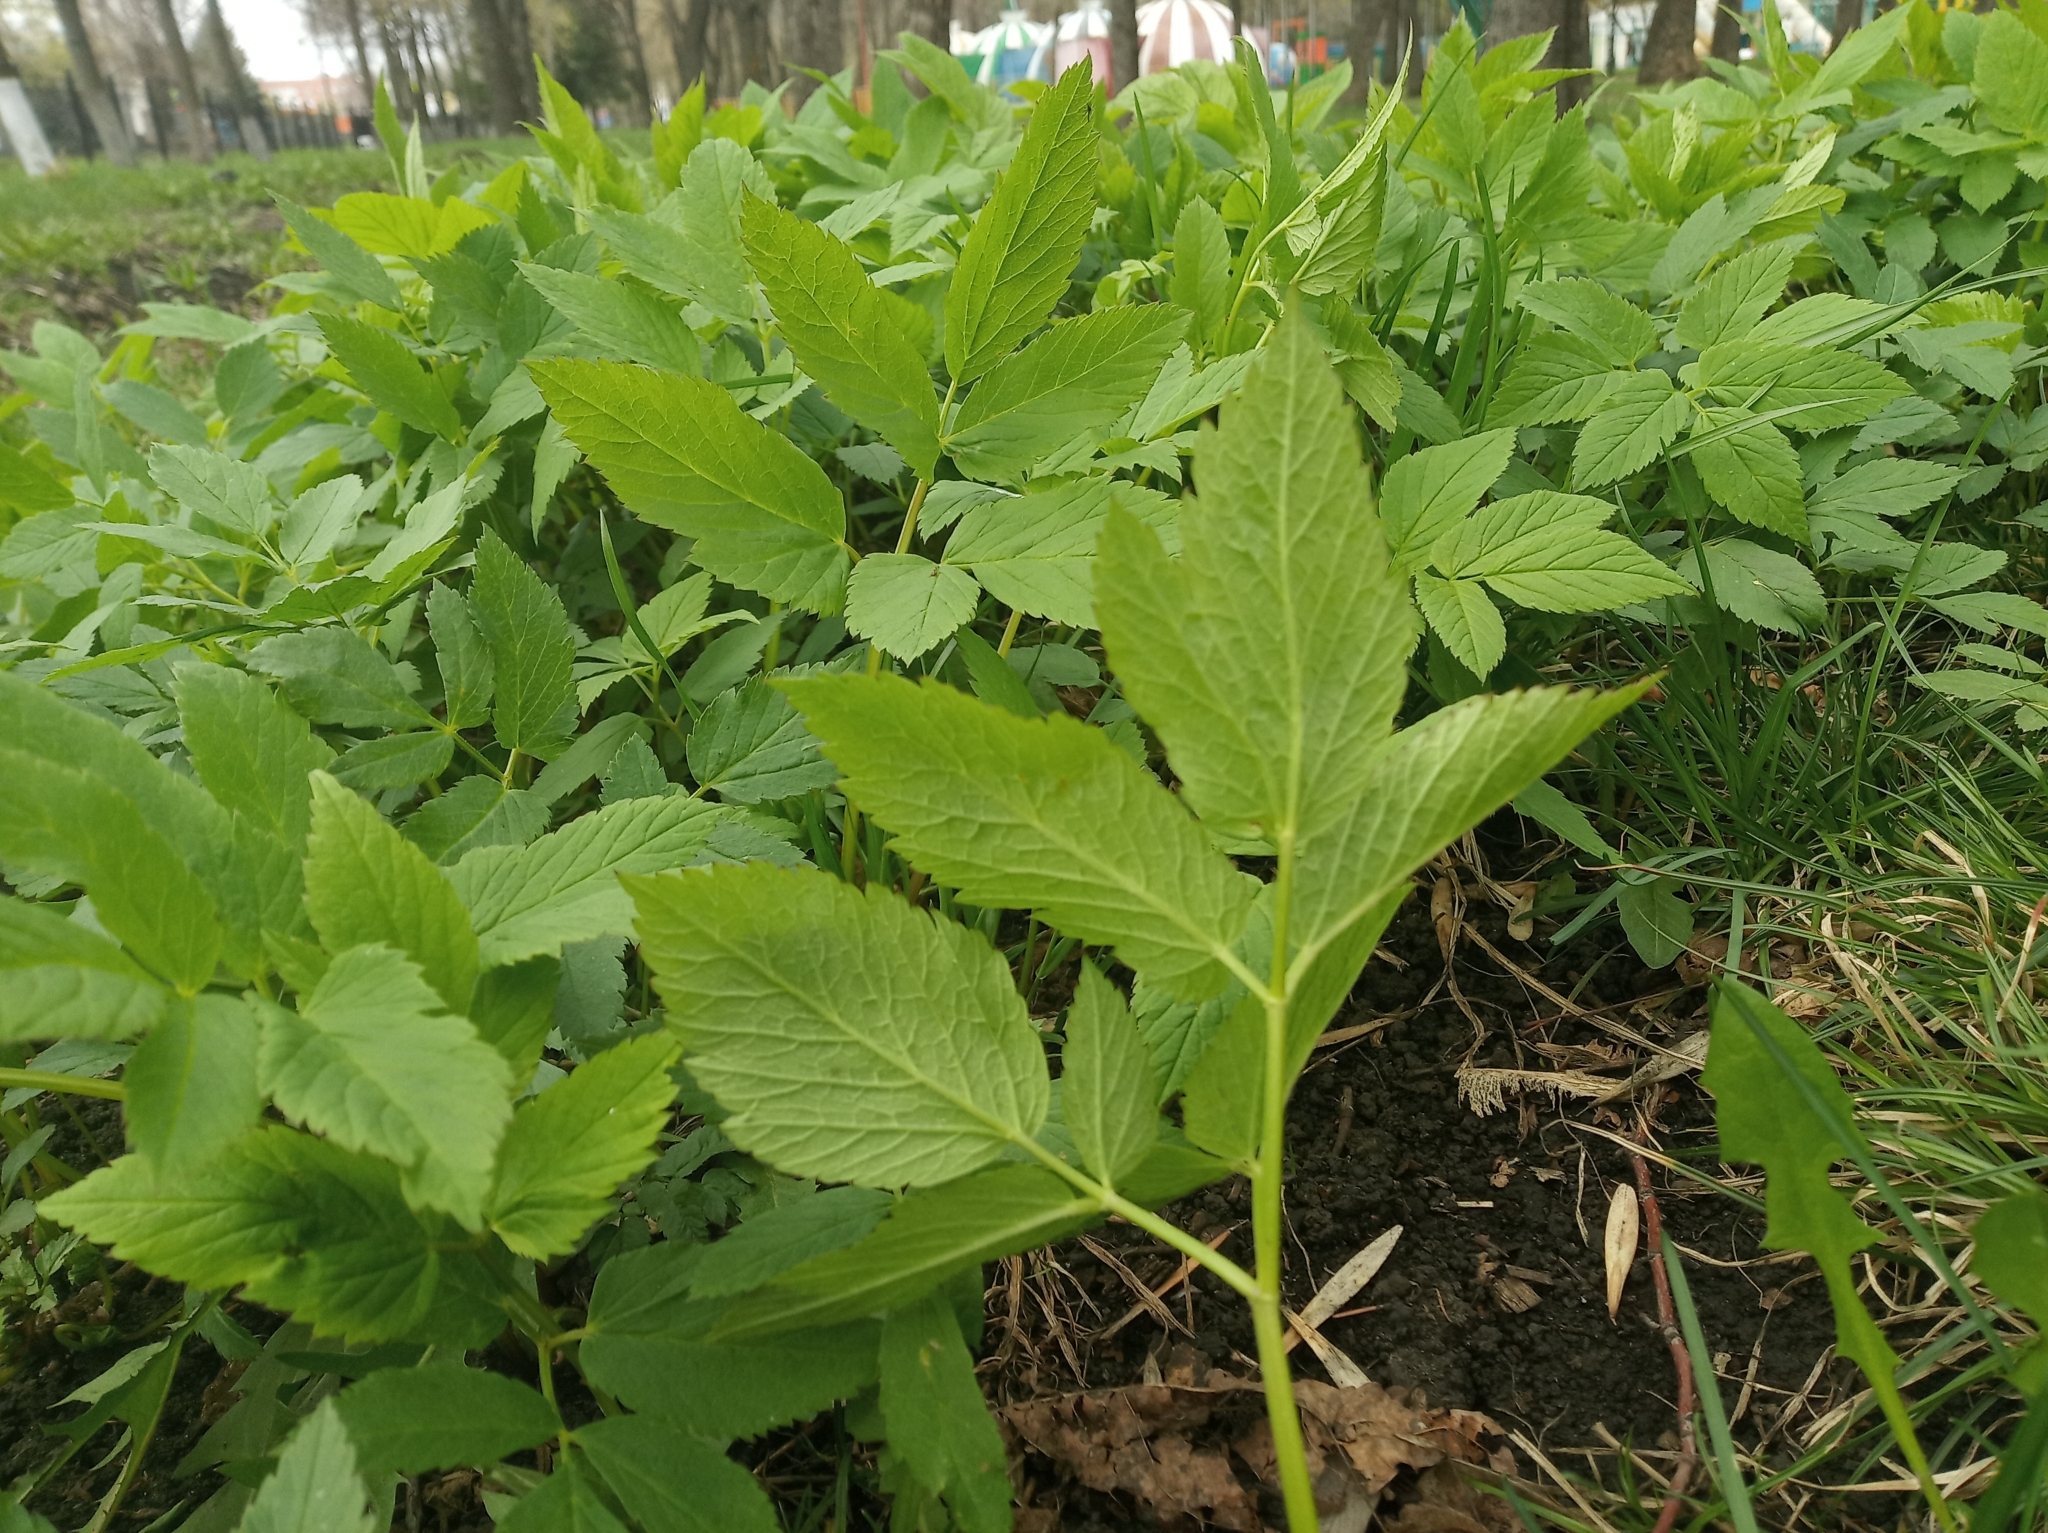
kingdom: Plantae
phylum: Tracheophyta
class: Magnoliopsida
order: Apiales
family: Apiaceae
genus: Aegopodium
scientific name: Aegopodium podagraria
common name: Ground-elder
